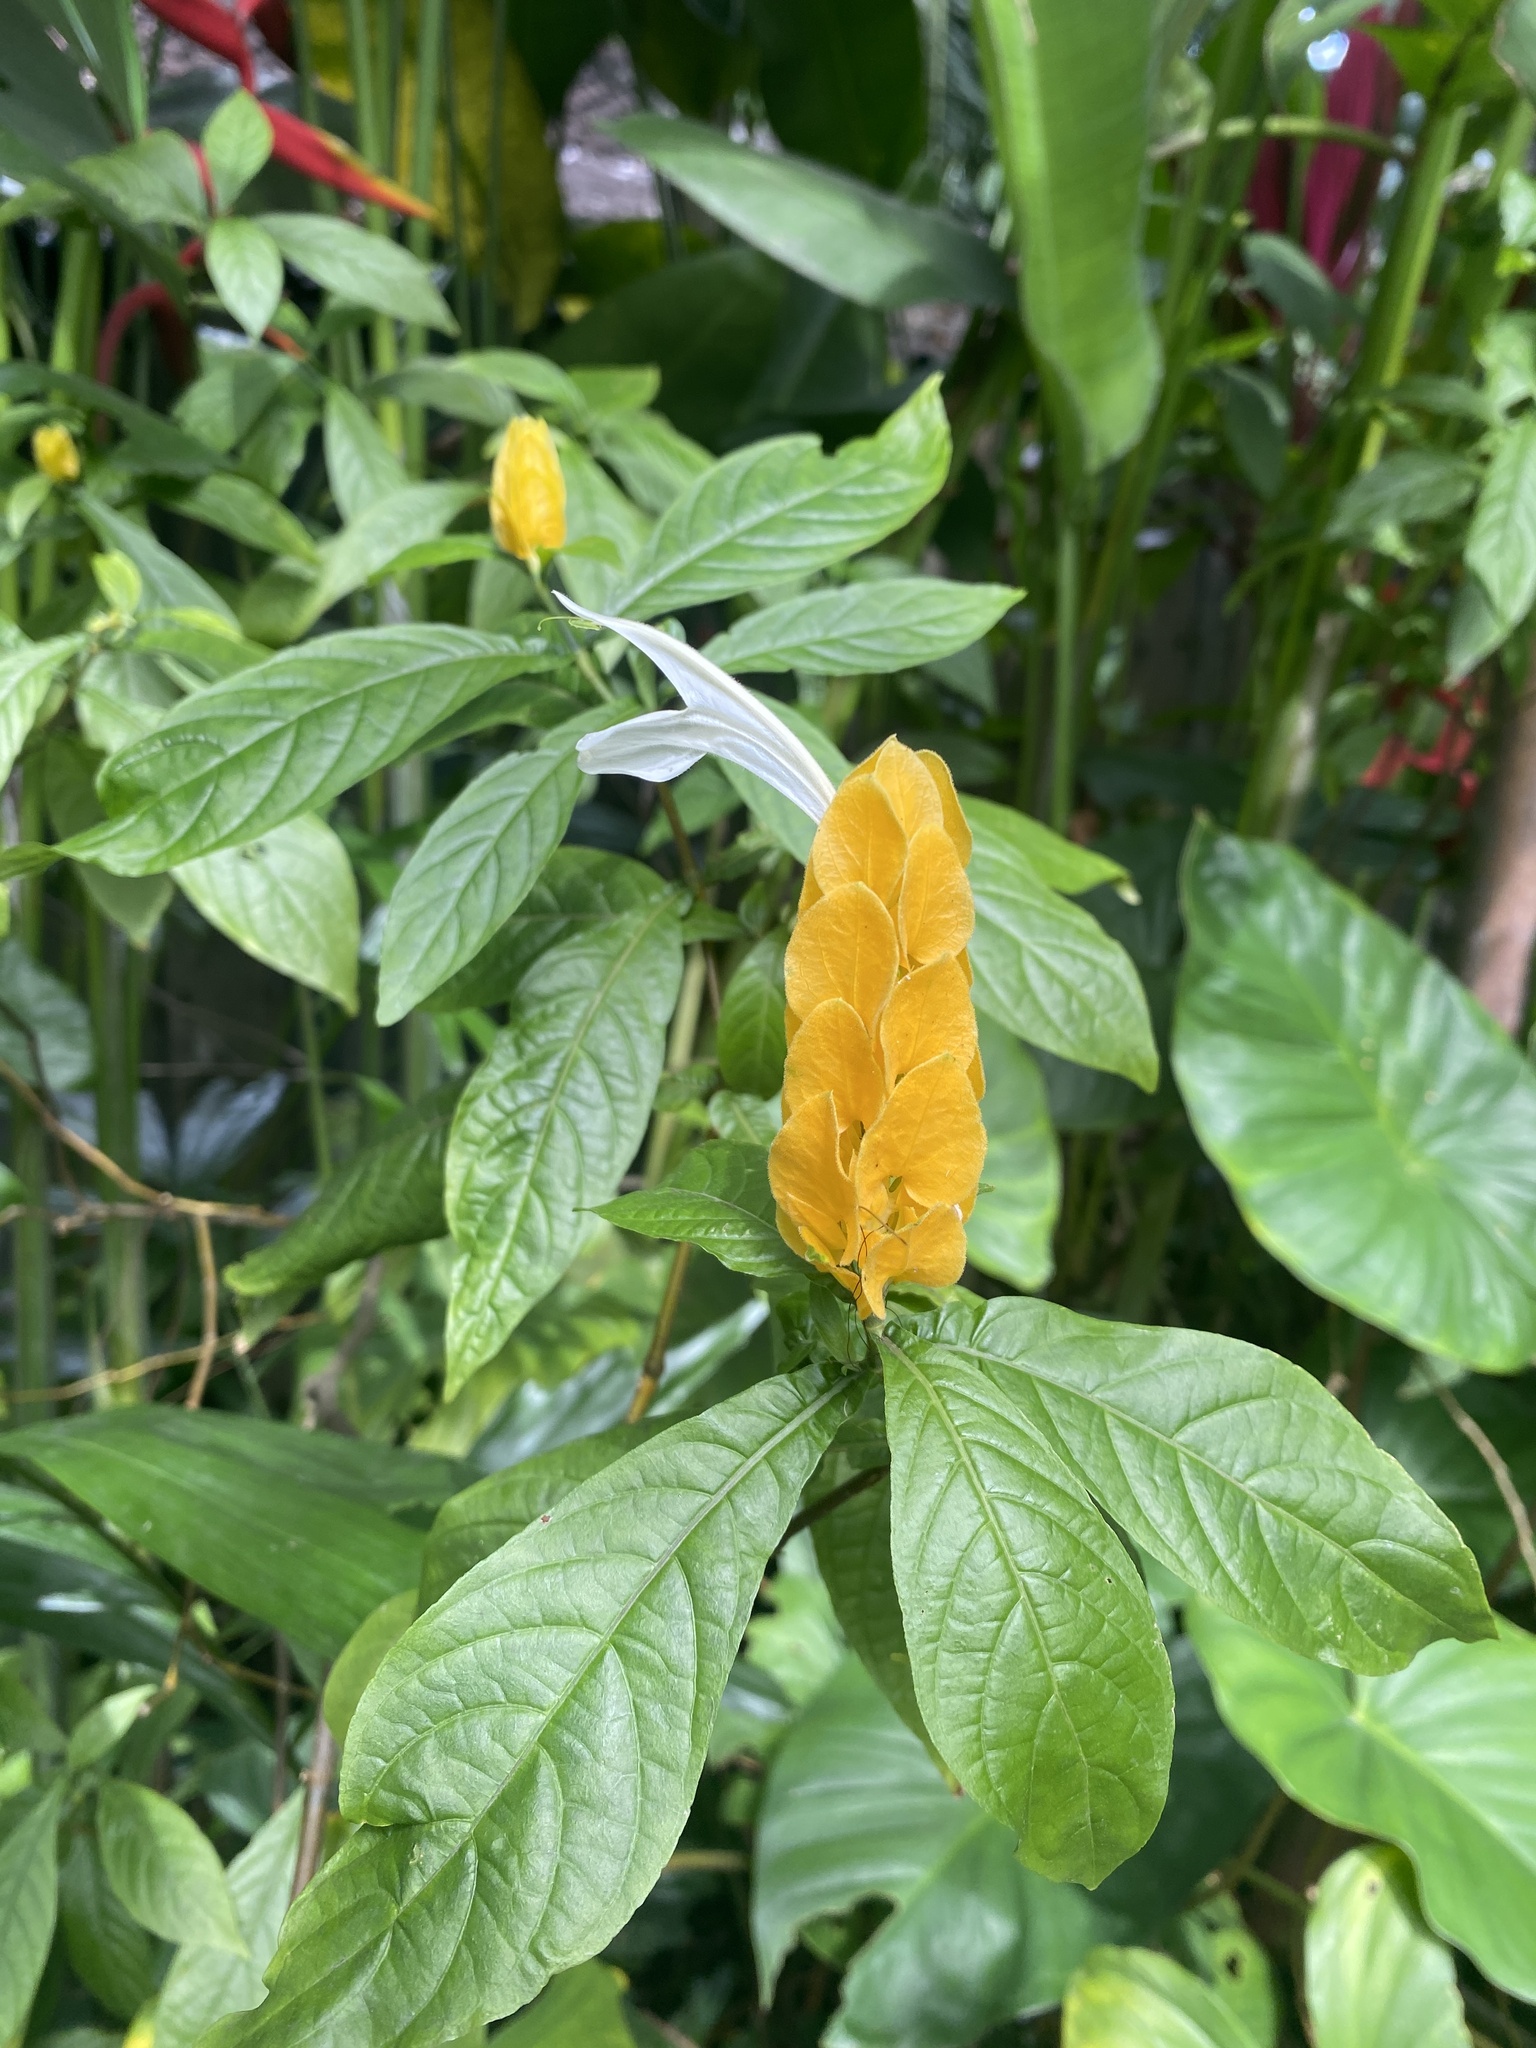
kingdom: Plantae
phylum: Tracheophyta
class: Magnoliopsida
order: Lamiales
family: Acanthaceae
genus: Pachystachys
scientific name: Pachystachys lutea
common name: Golden shrimp-plant
